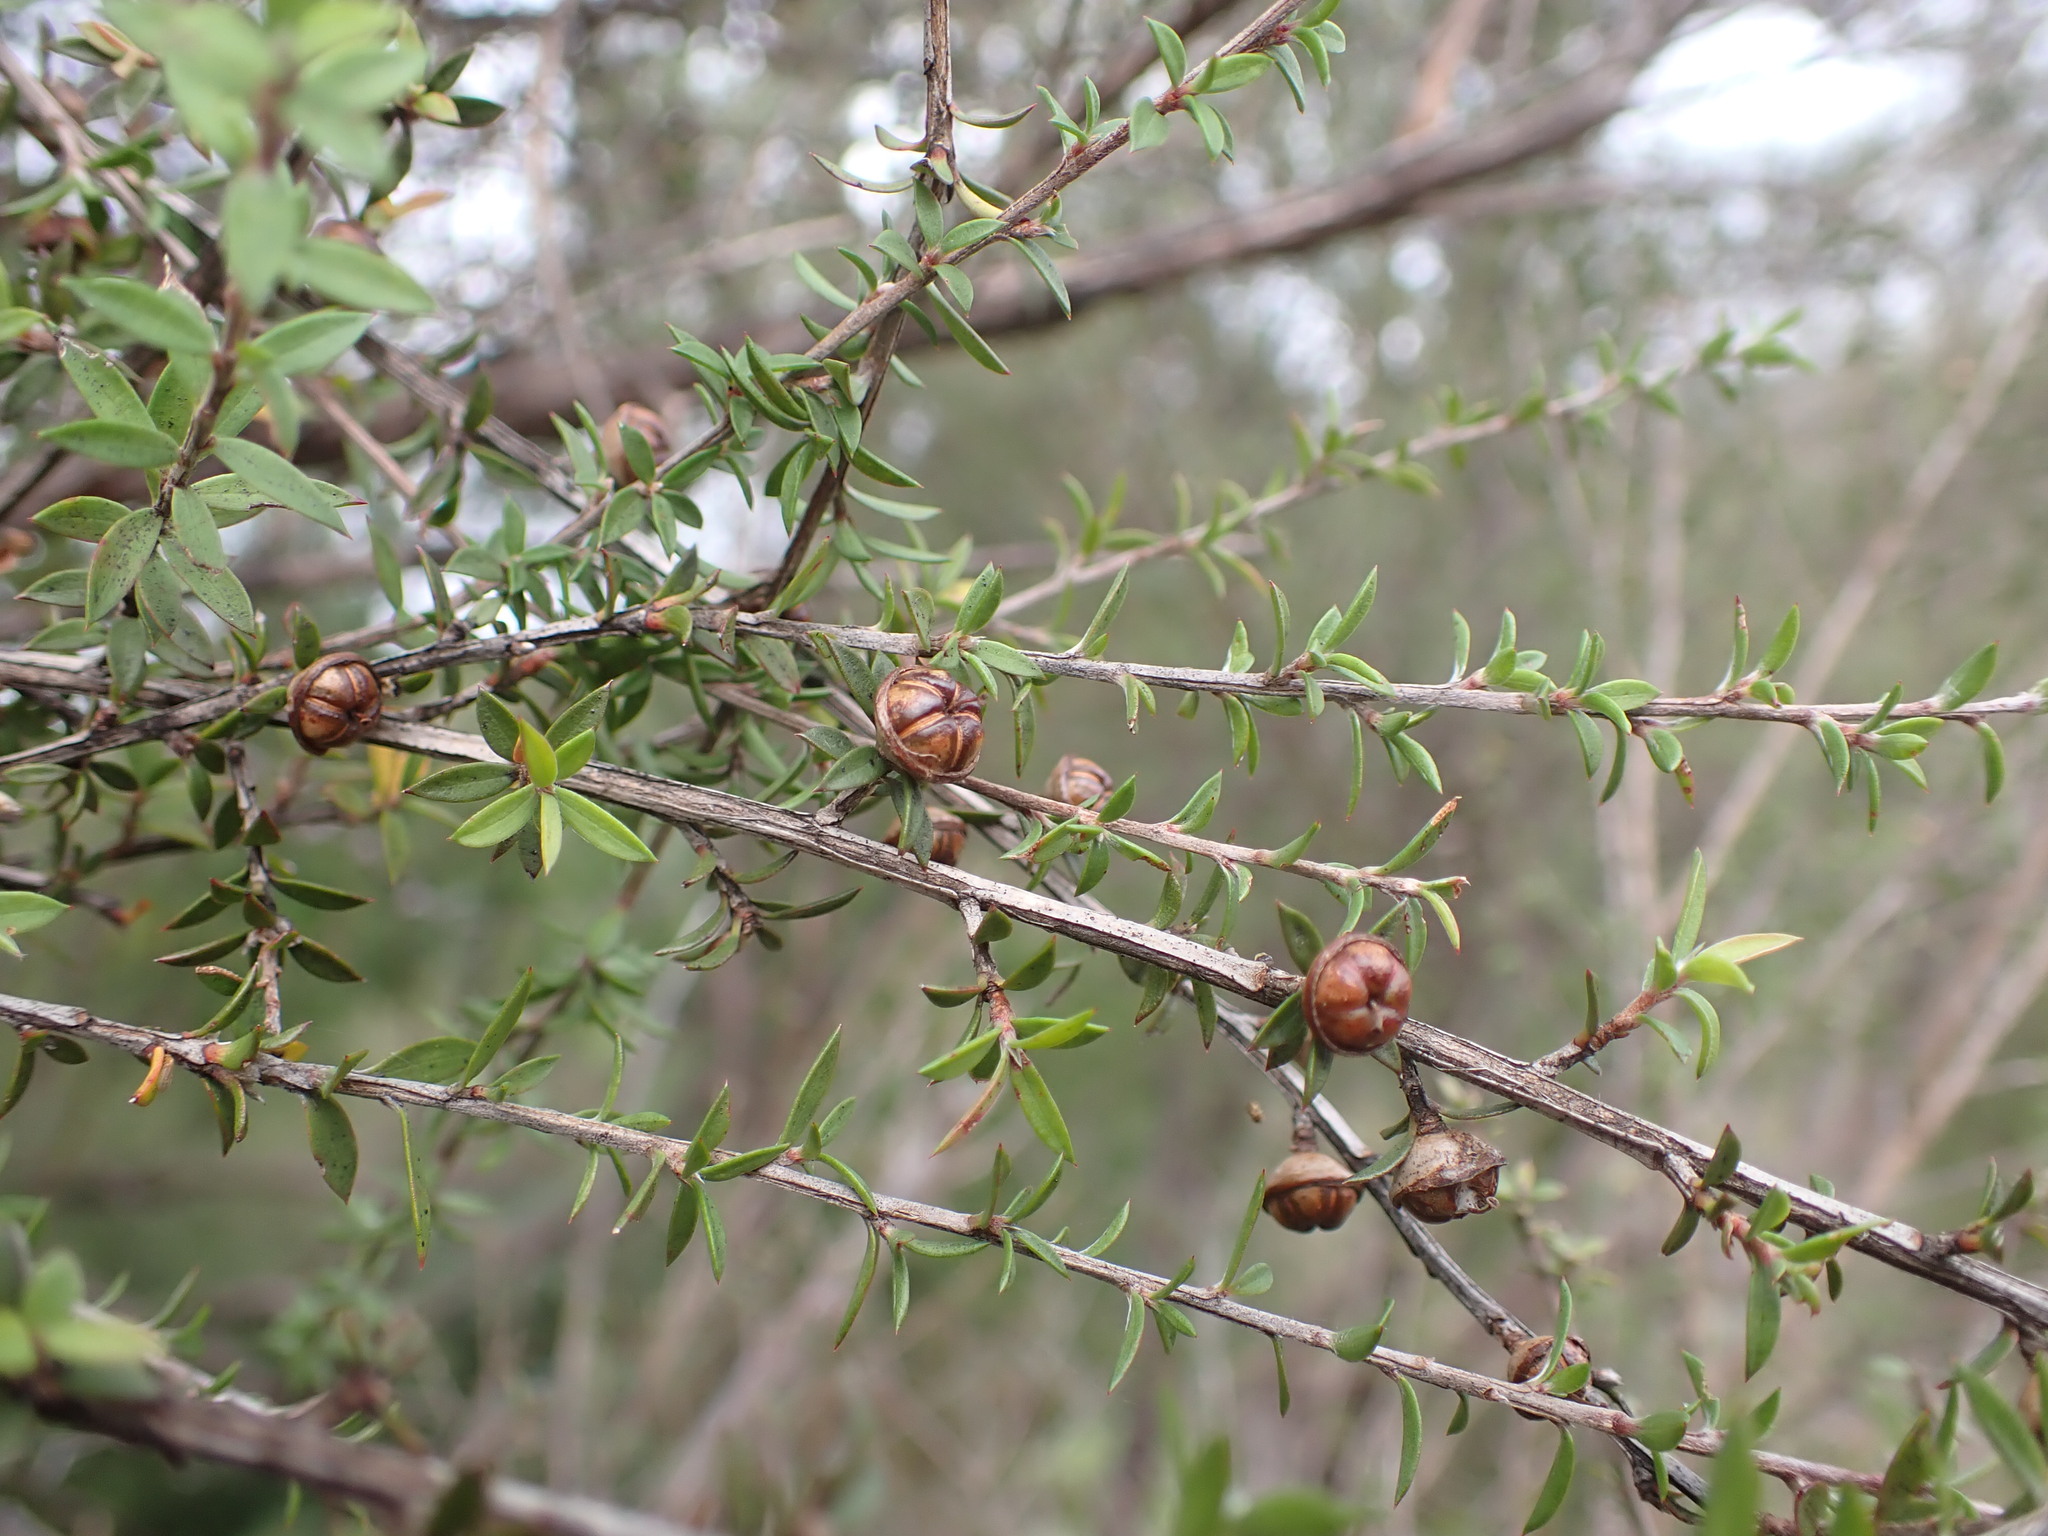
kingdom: Plantae
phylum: Tracheophyta
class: Magnoliopsida
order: Myrtales
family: Myrtaceae
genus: Leptospermum
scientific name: Leptospermum scoparium
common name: Broom tea-tree
